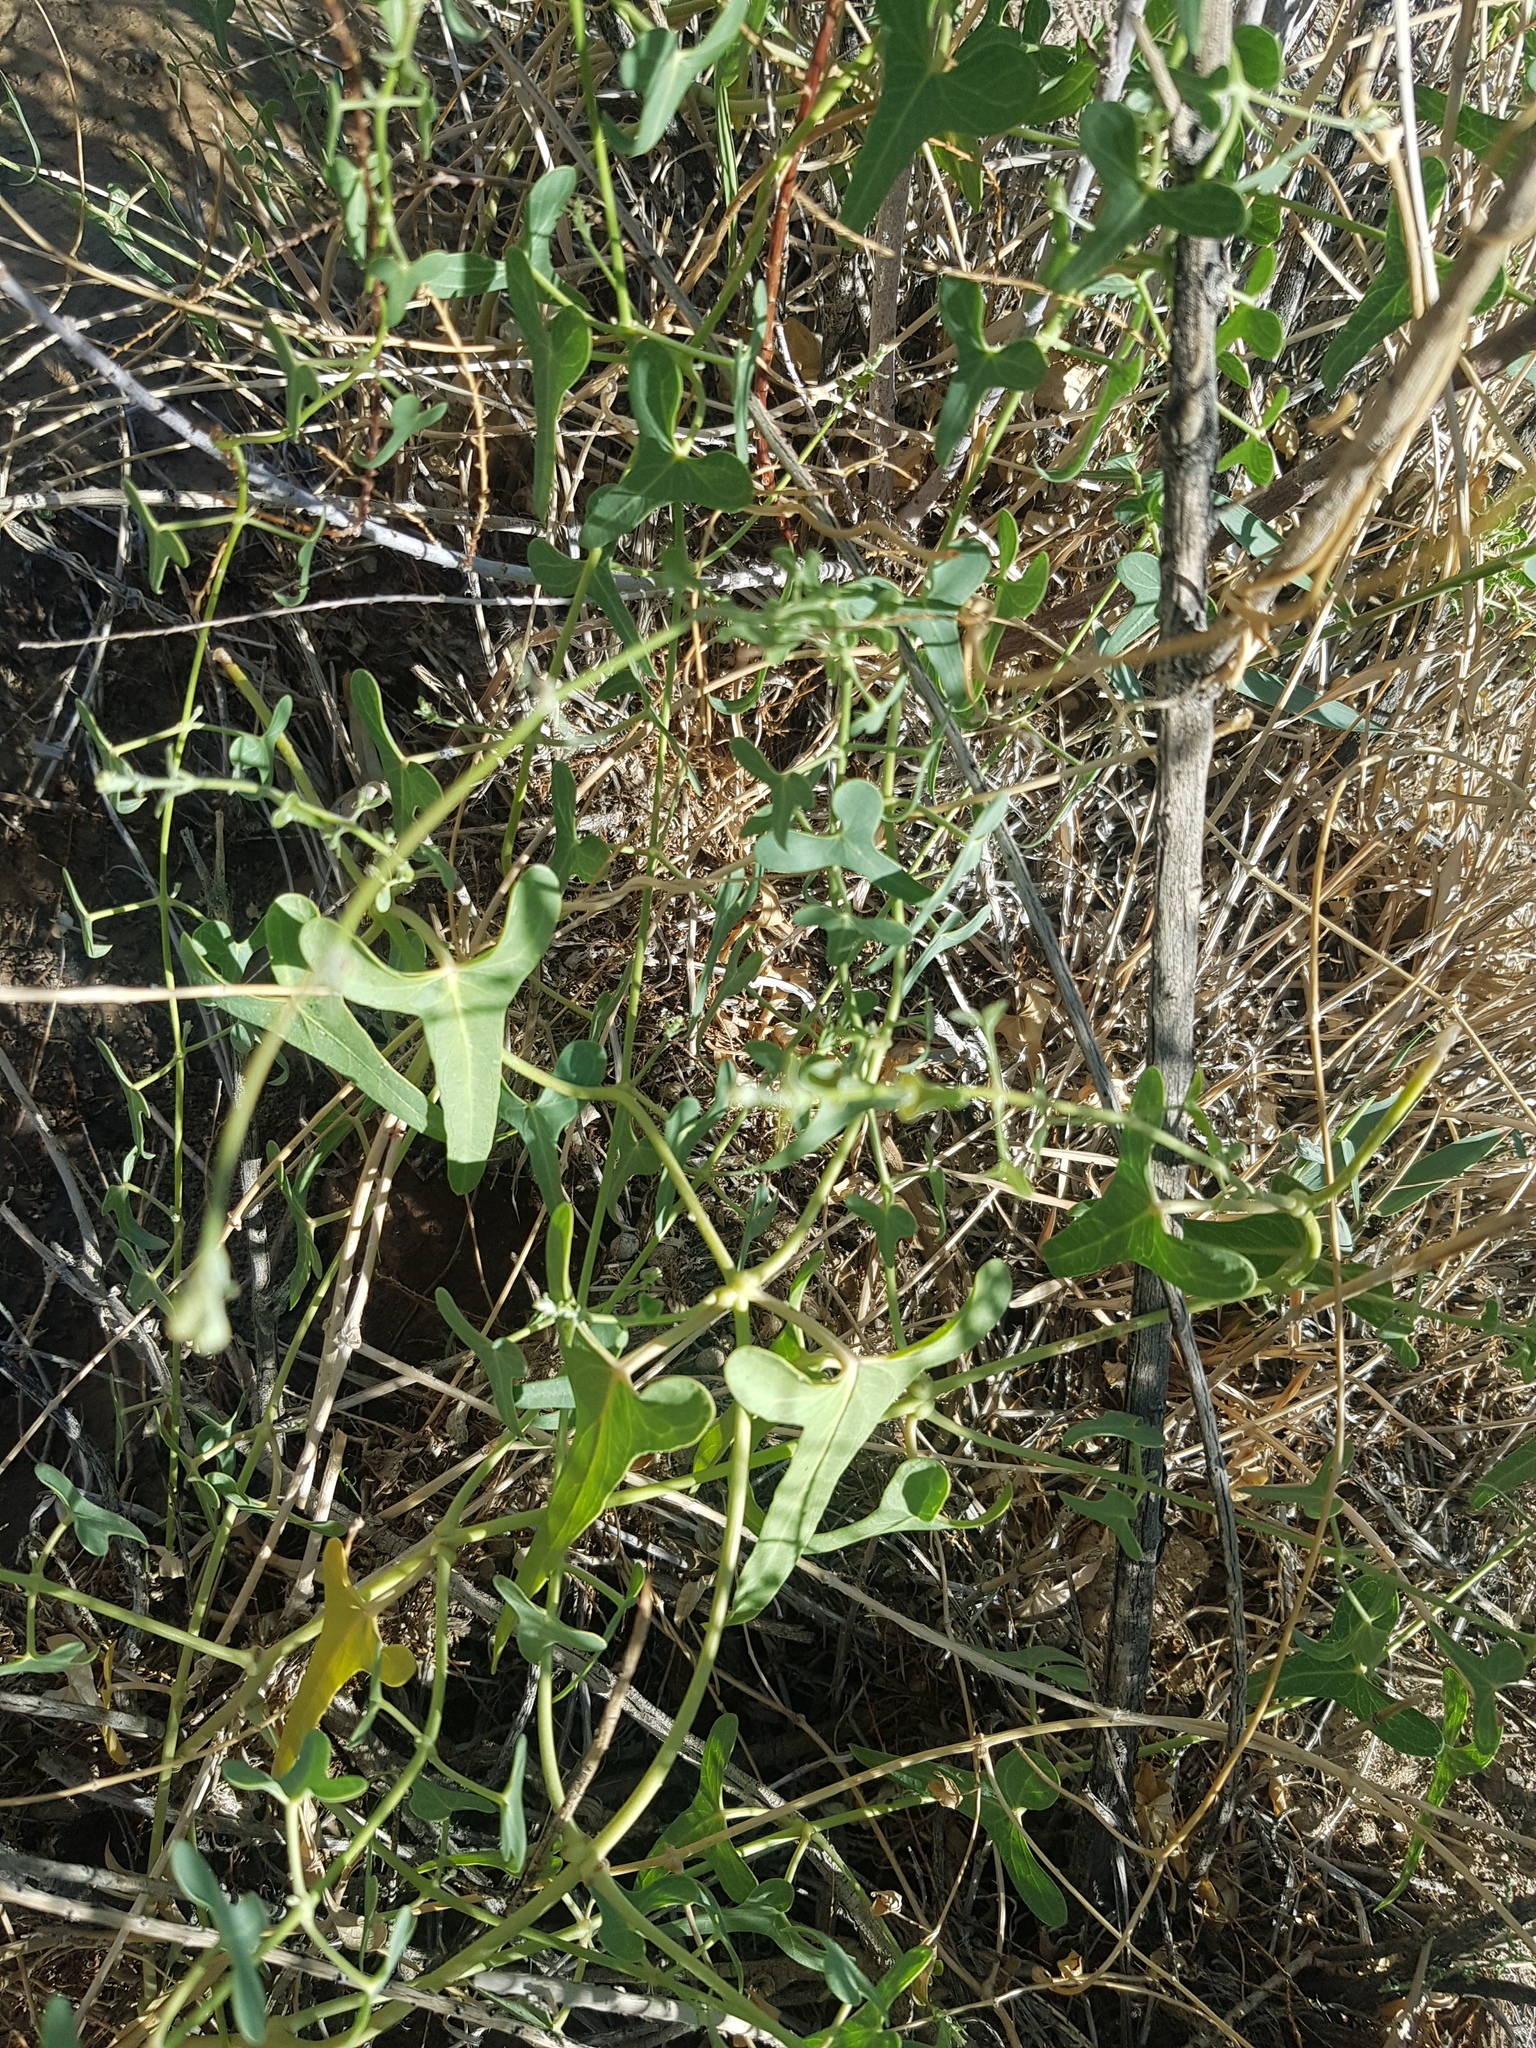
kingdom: Plantae
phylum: Tracheophyta
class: Magnoliopsida
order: Gentianales
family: Apocynaceae
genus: Cynanchum
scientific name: Cynanchum acutum
